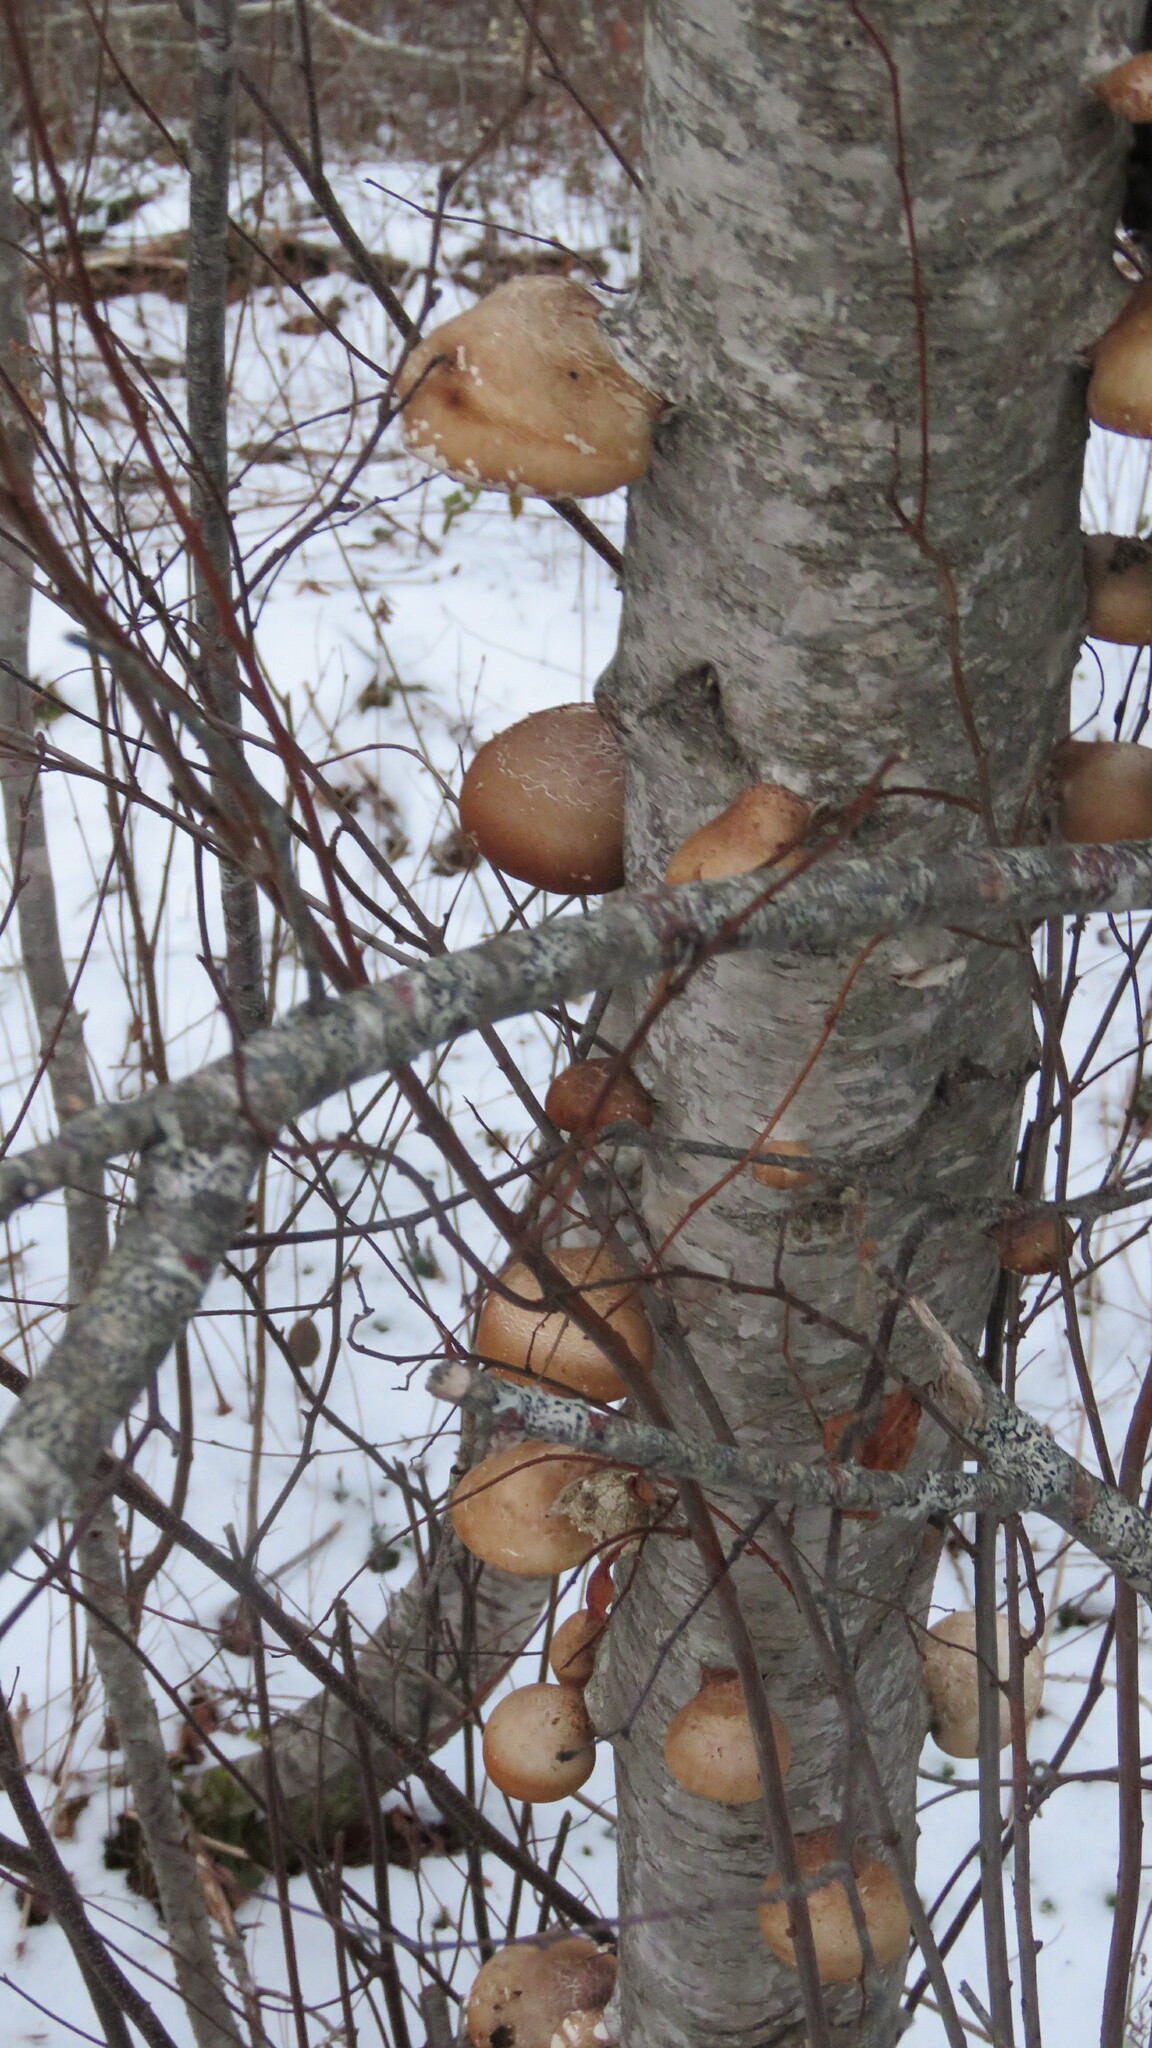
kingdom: Fungi
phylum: Basidiomycota
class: Agaricomycetes
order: Polyporales
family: Fomitopsidaceae
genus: Fomitopsis
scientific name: Fomitopsis betulina
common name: Birch polypore
